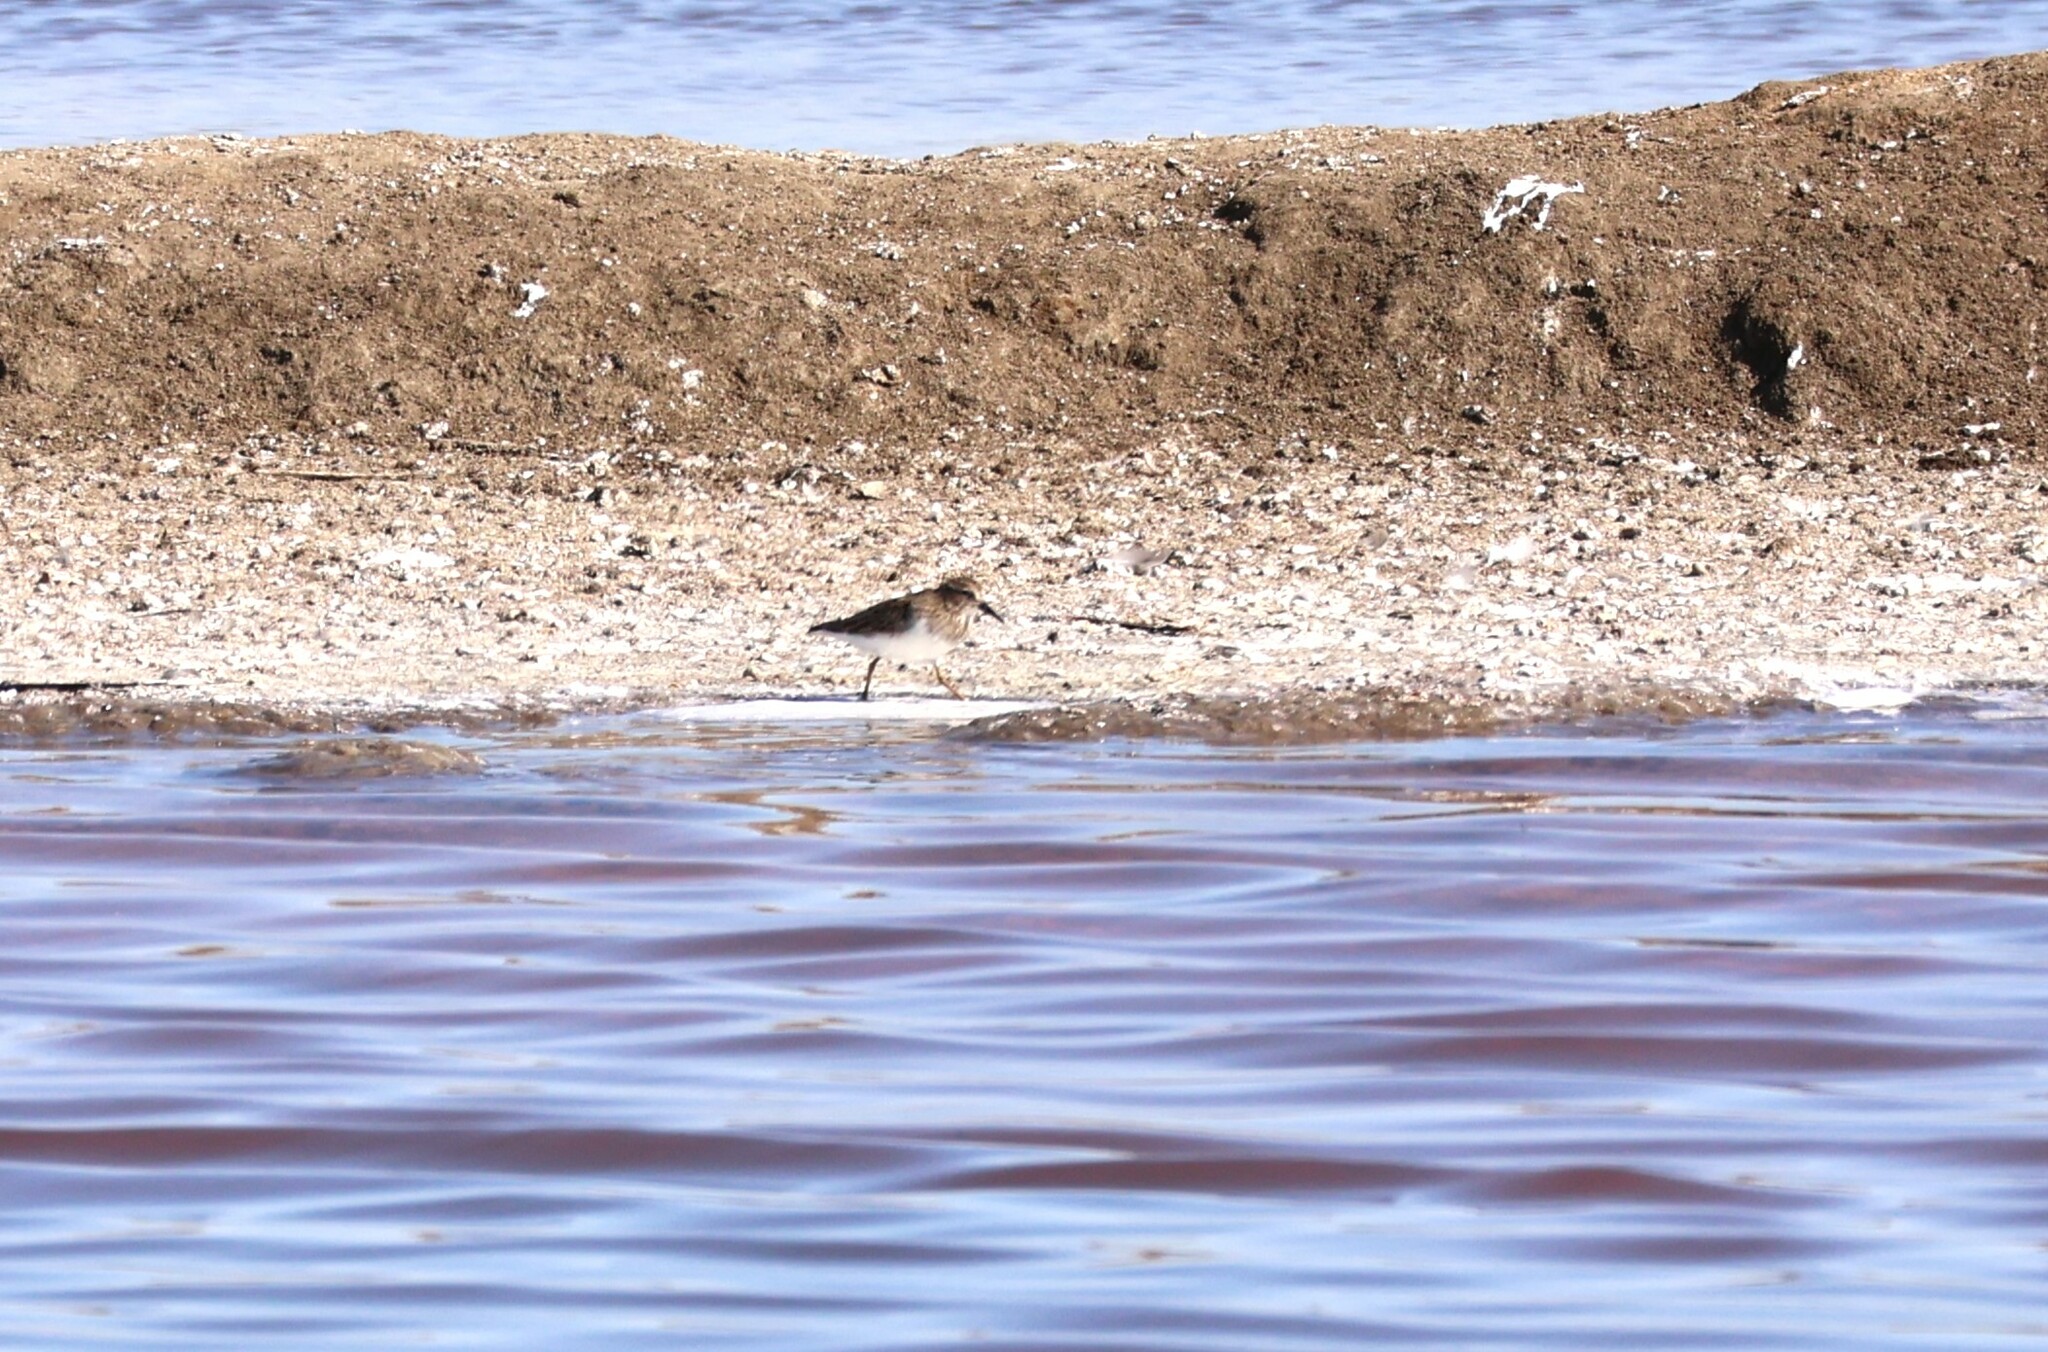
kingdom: Animalia
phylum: Chordata
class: Aves
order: Charadriiformes
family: Scolopacidae
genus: Calidris
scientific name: Calidris minutilla
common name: Least sandpiper
